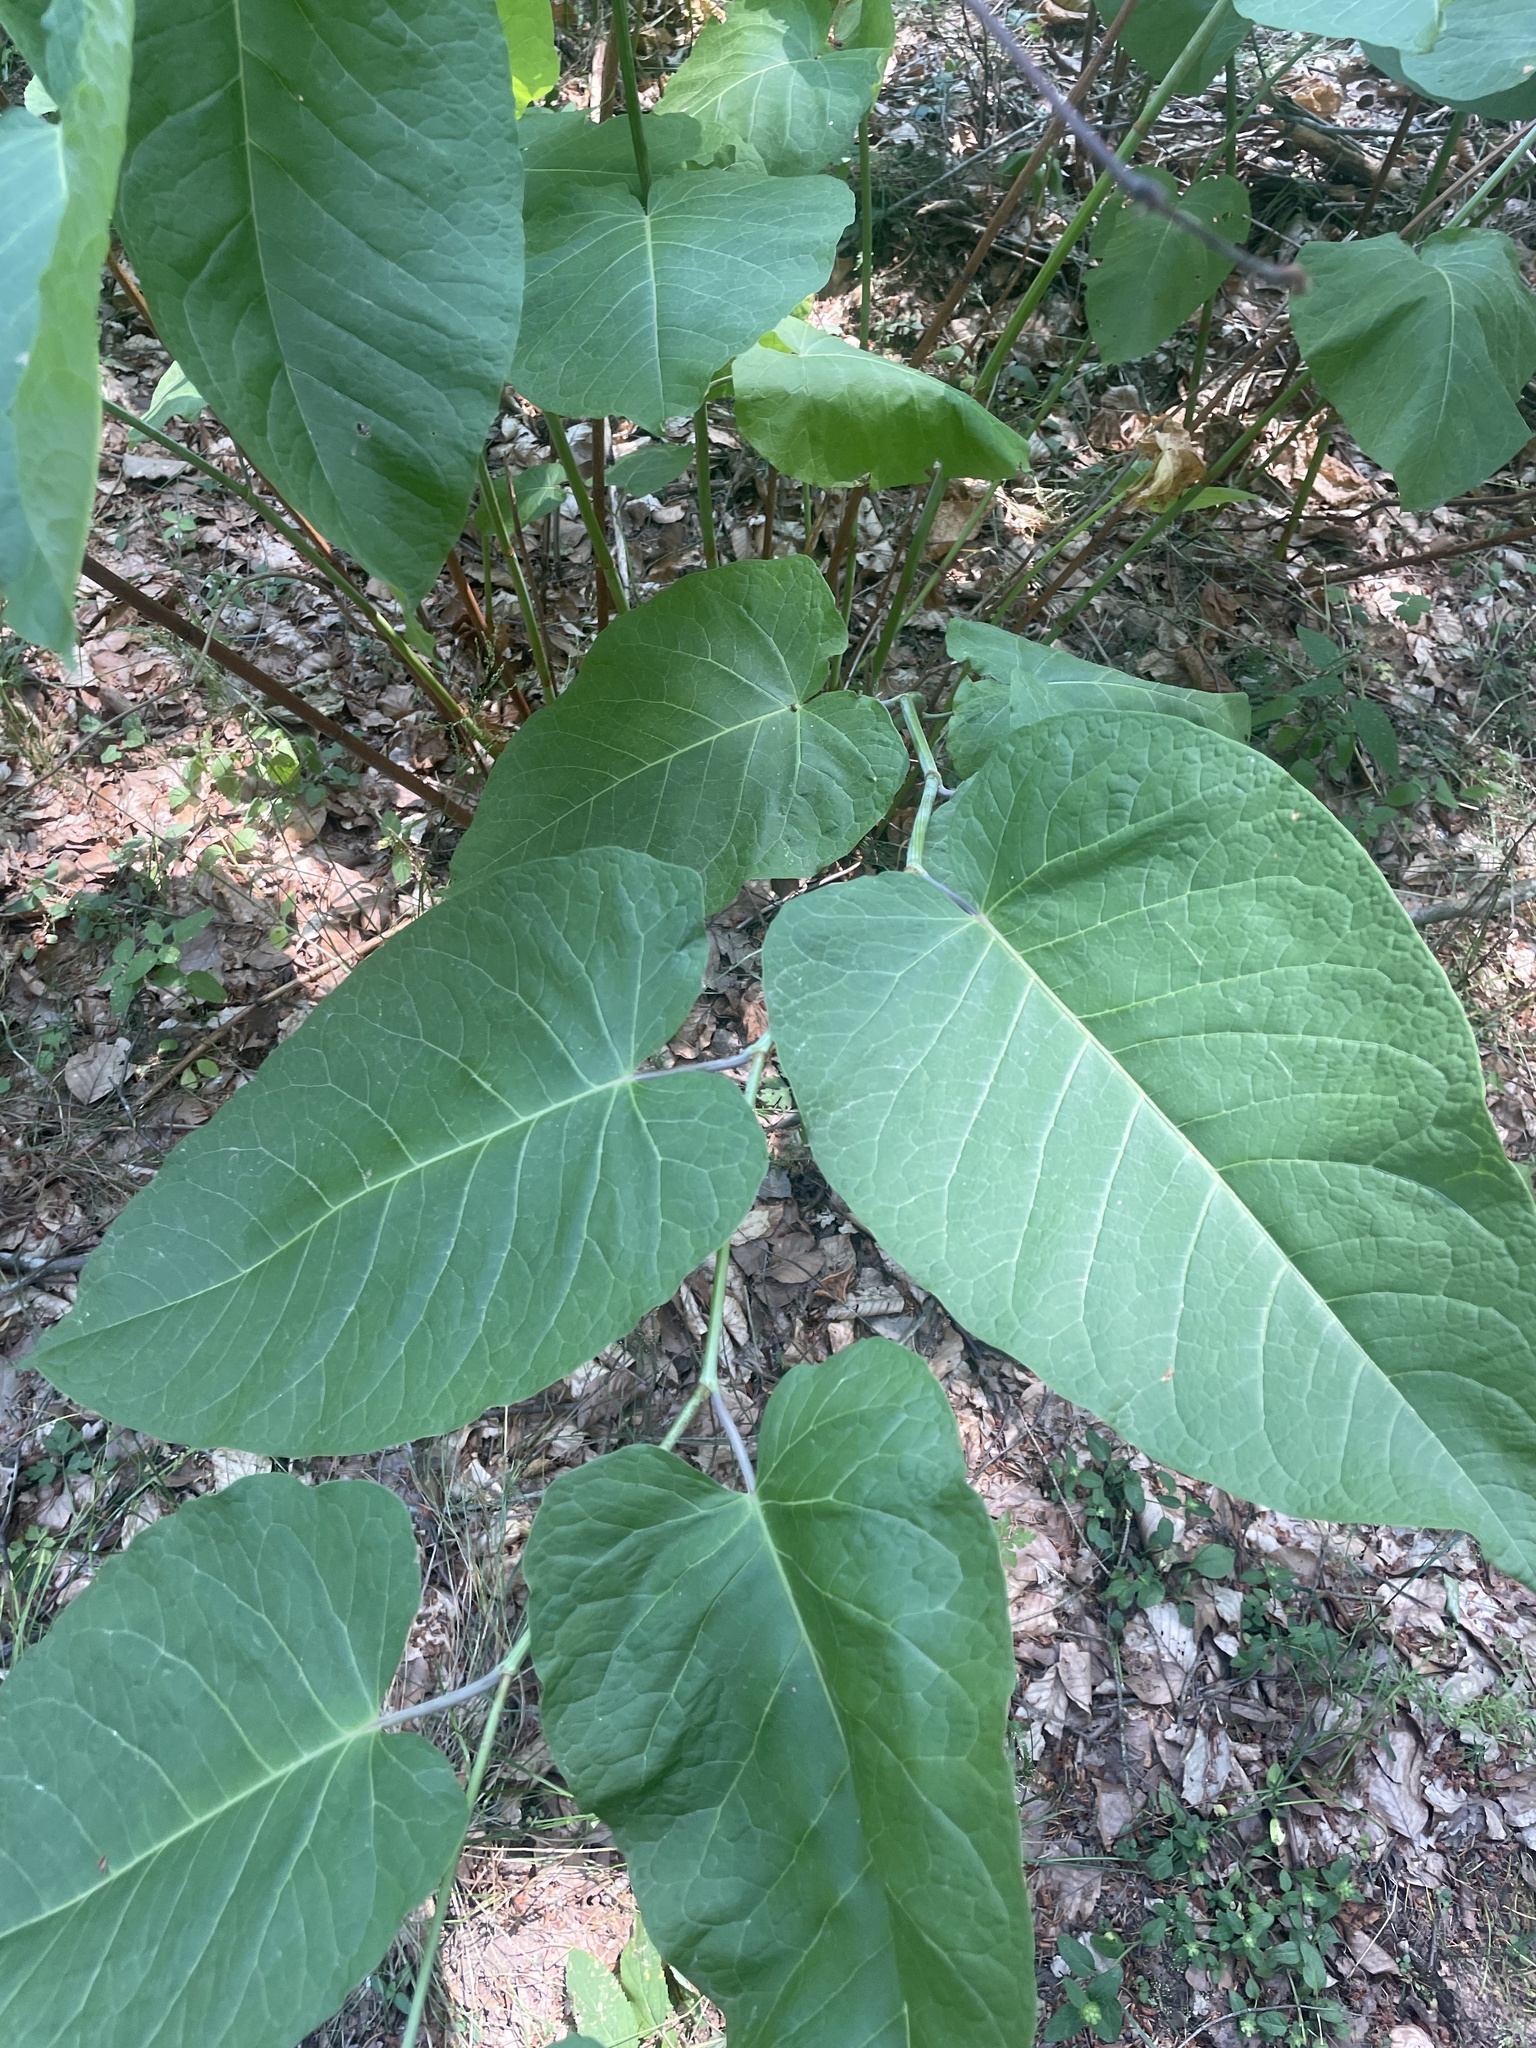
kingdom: Plantae
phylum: Tracheophyta
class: Magnoliopsida
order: Caryophyllales
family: Polygonaceae
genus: Reynoutria
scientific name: Reynoutria sachalinensis
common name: Giant knotweed
